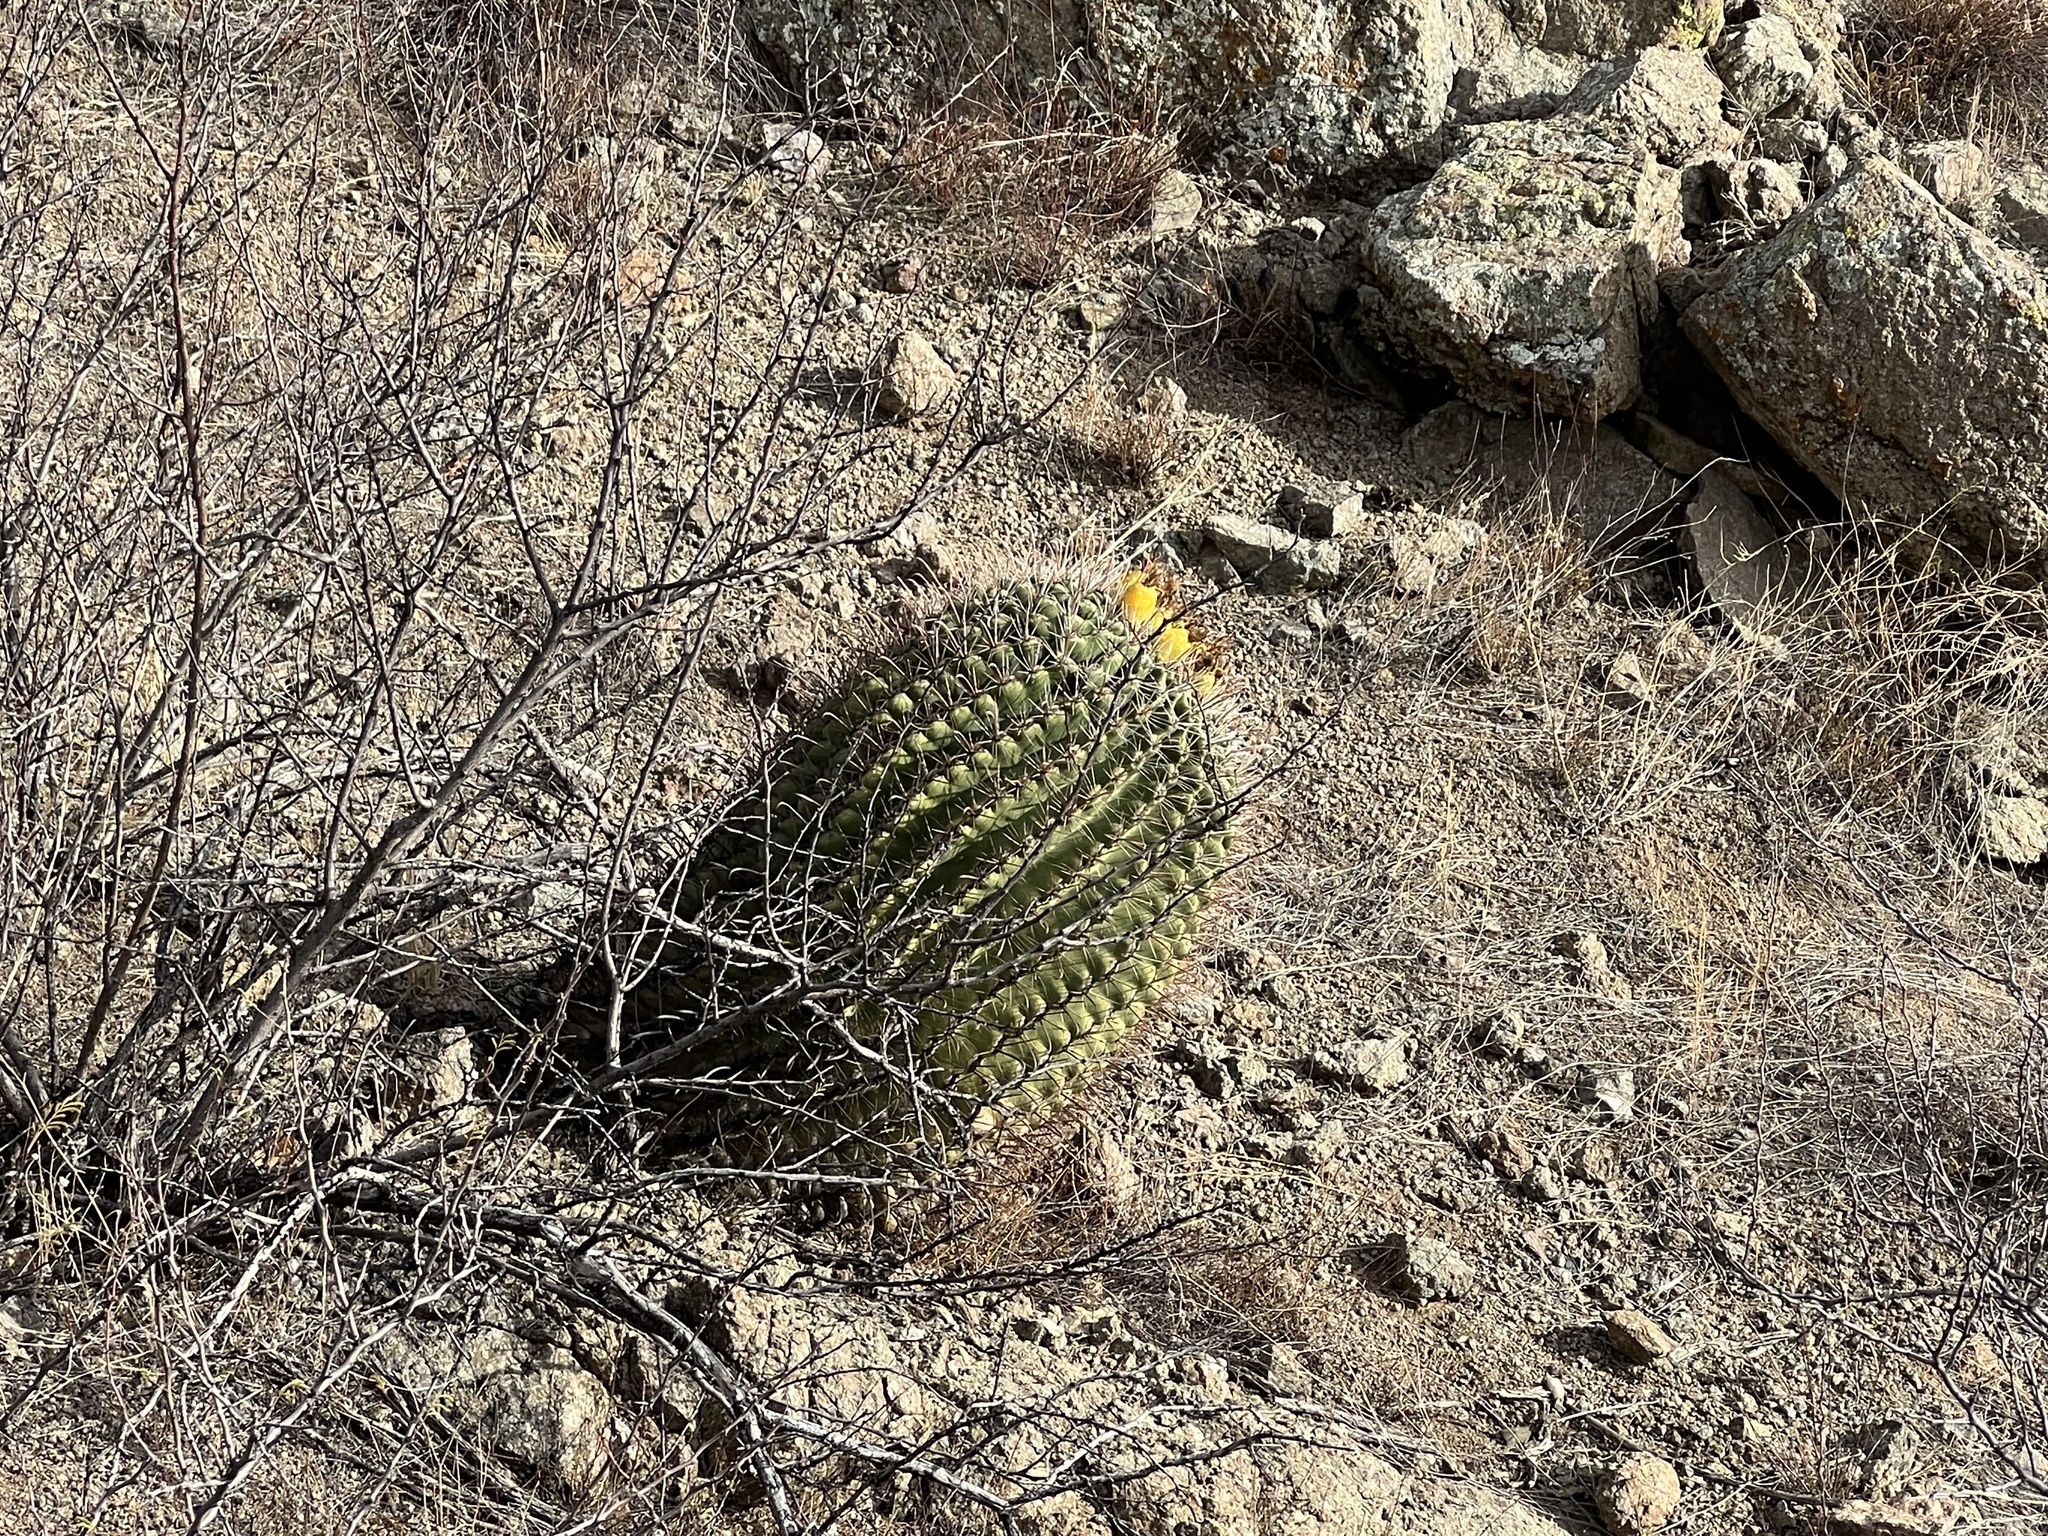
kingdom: Plantae
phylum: Tracheophyta
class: Magnoliopsida
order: Caryophyllales
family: Cactaceae
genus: Ferocactus
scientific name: Ferocactus wislizeni
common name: Candy barrel cactus
